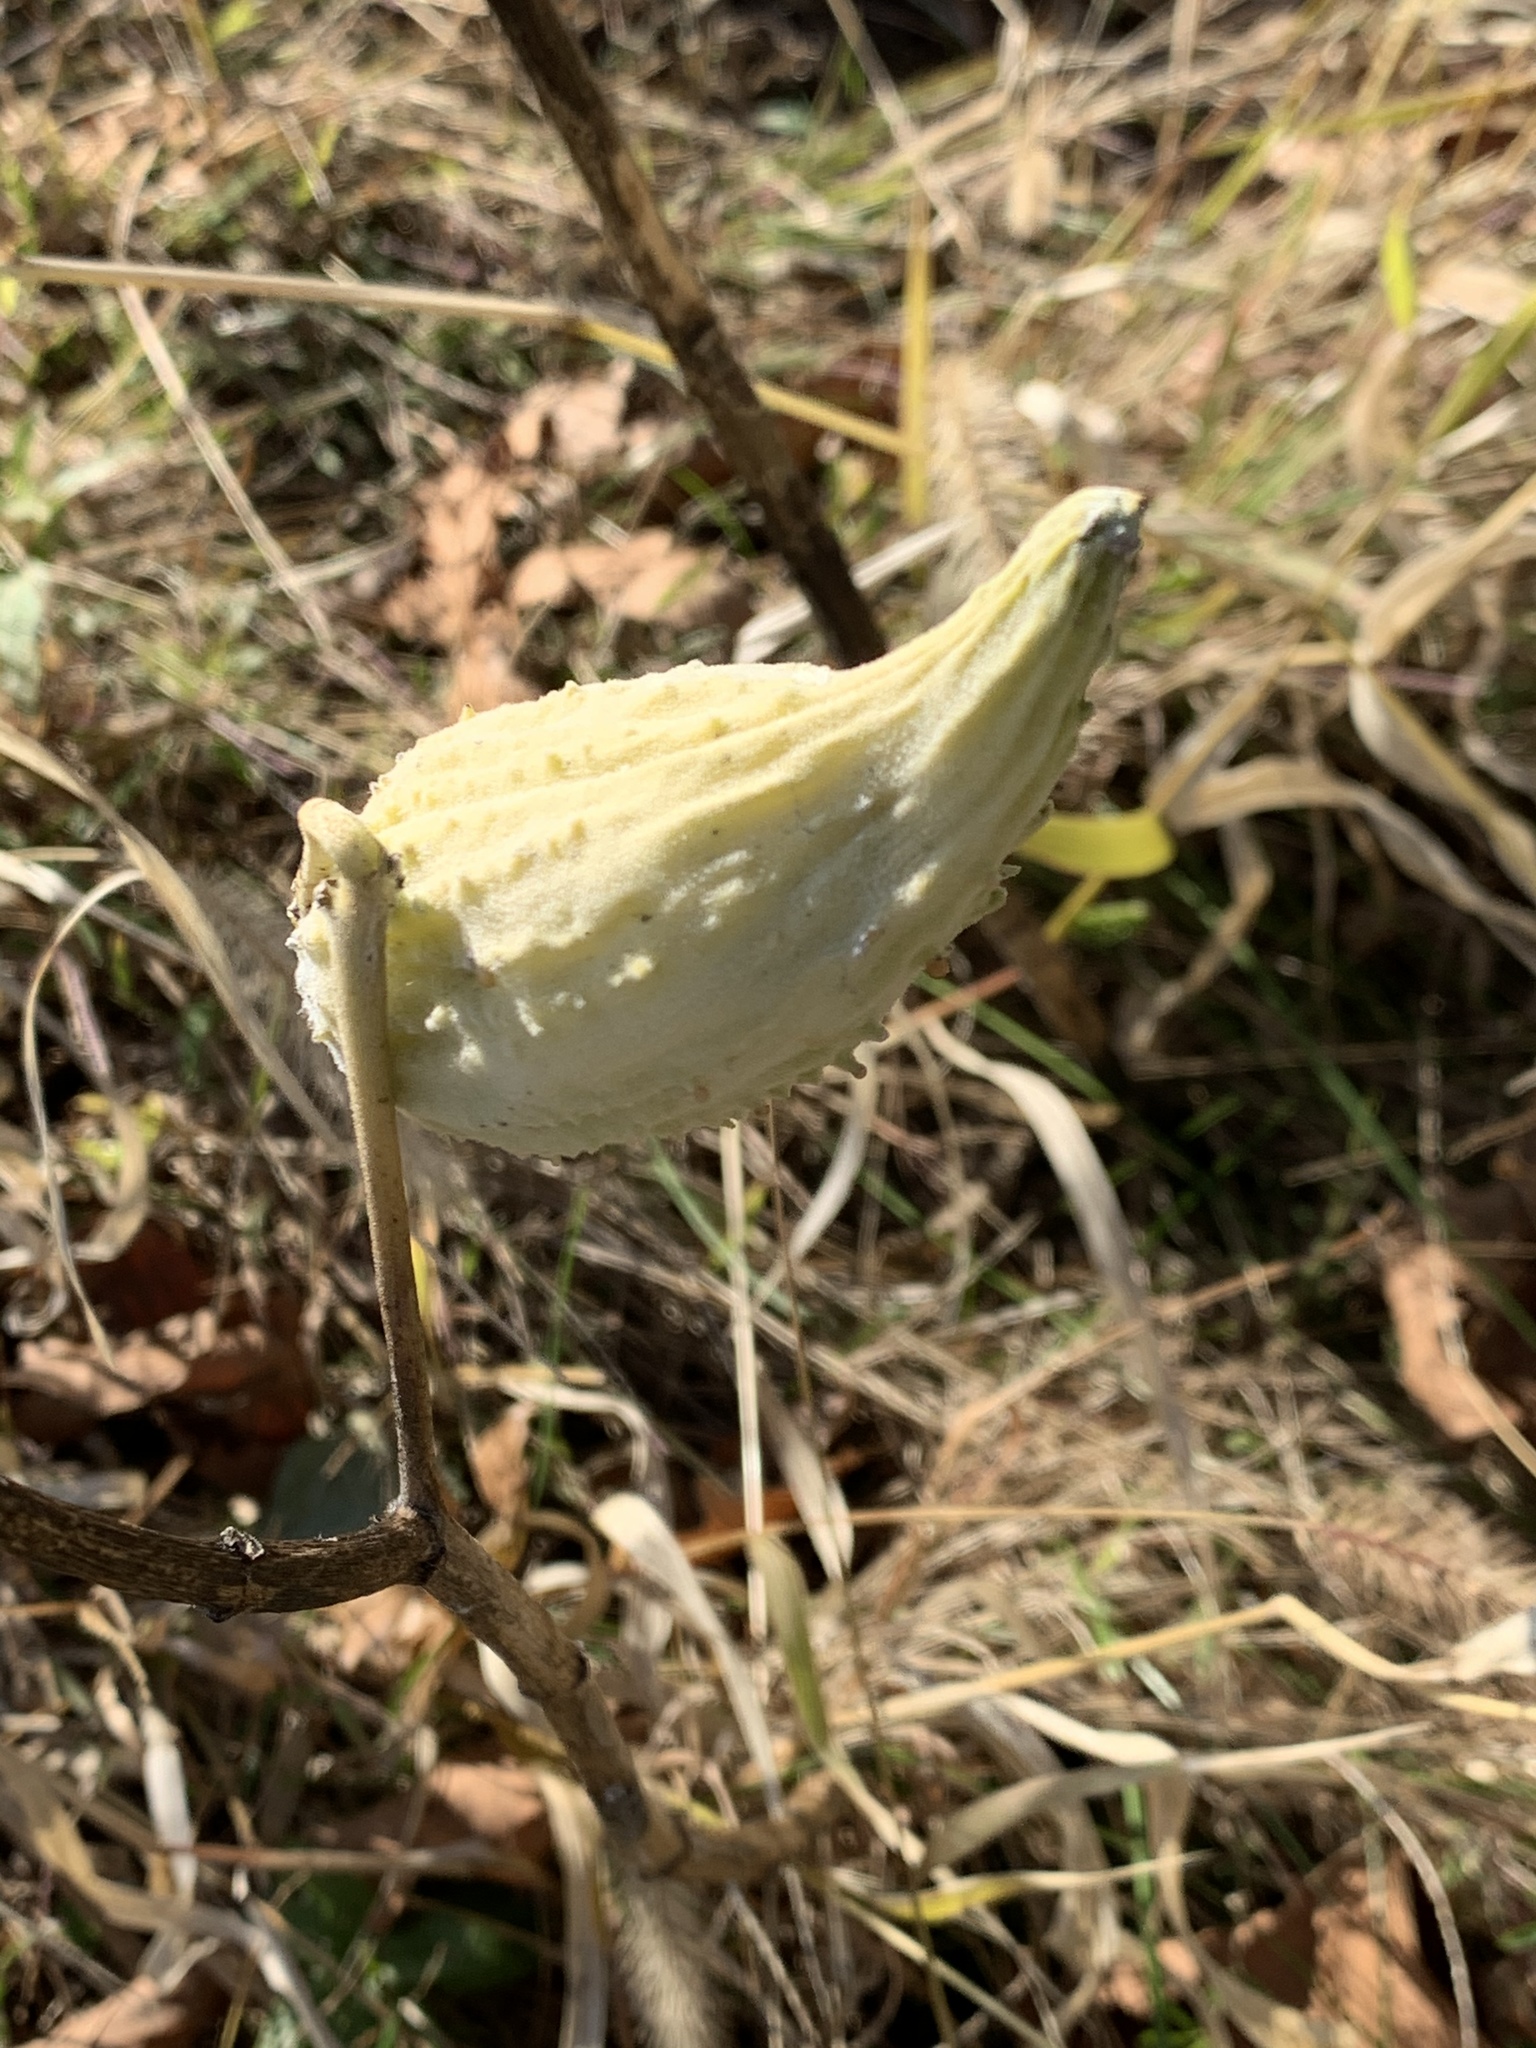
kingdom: Plantae
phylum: Tracheophyta
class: Magnoliopsida
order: Gentianales
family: Apocynaceae
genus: Asclepias
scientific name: Asclepias syriaca
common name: Common milkweed
